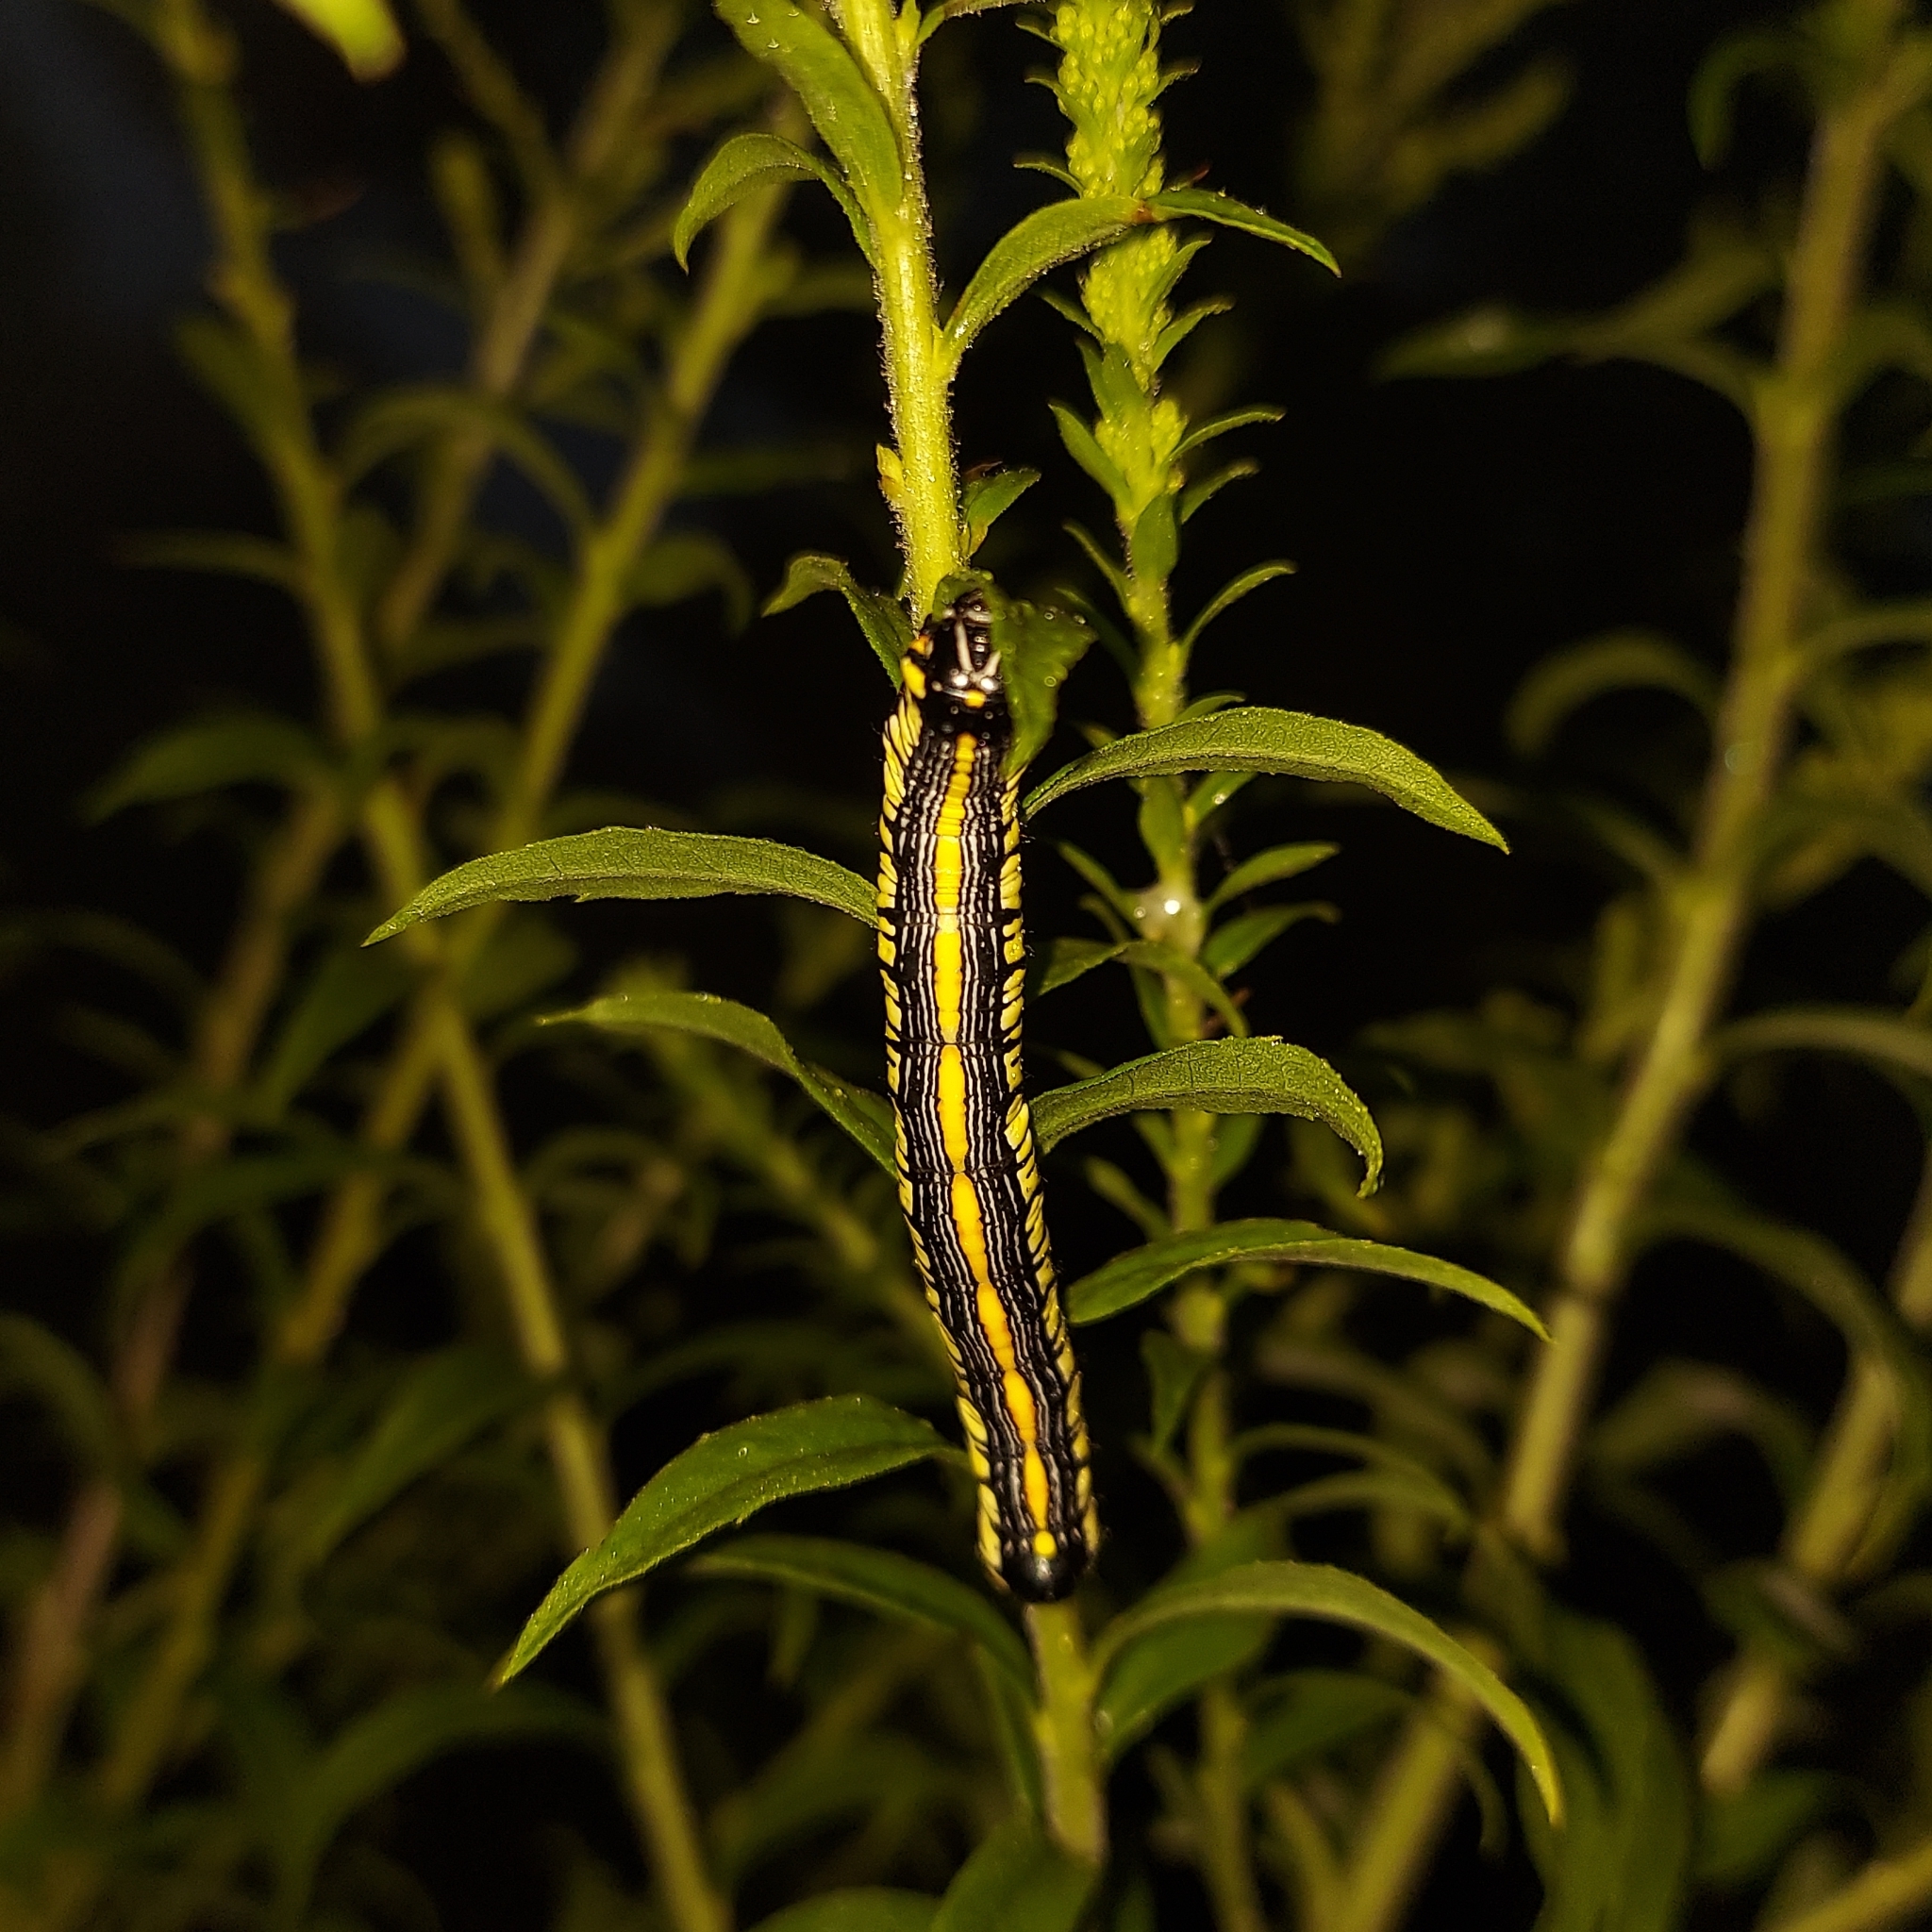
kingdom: Animalia
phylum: Arthropoda
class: Insecta
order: Lepidoptera
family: Noctuidae
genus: Cucullia
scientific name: Cucullia convexipennis
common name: Brown-hooded owlet
